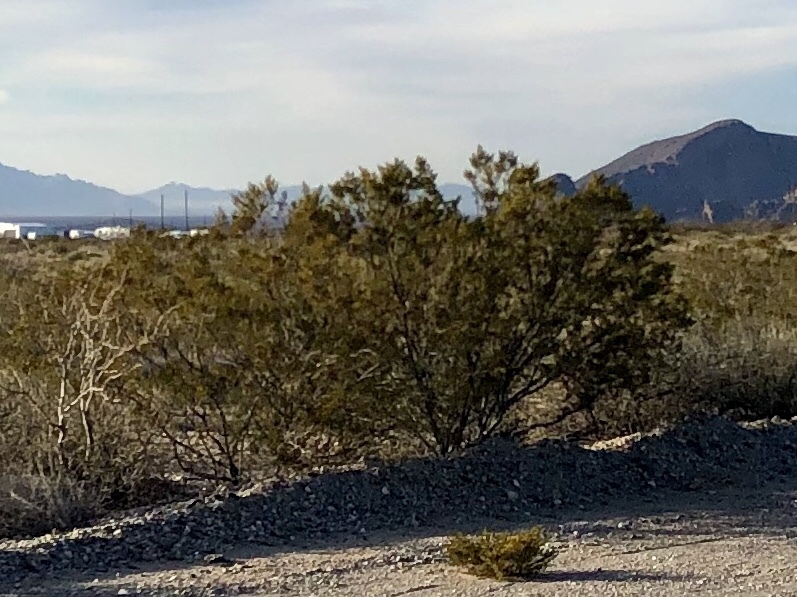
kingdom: Plantae
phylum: Tracheophyta
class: Magnoliopsida
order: Zygophyllales
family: Zygophyllaceae
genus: Larrea
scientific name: Larrea tridentata
